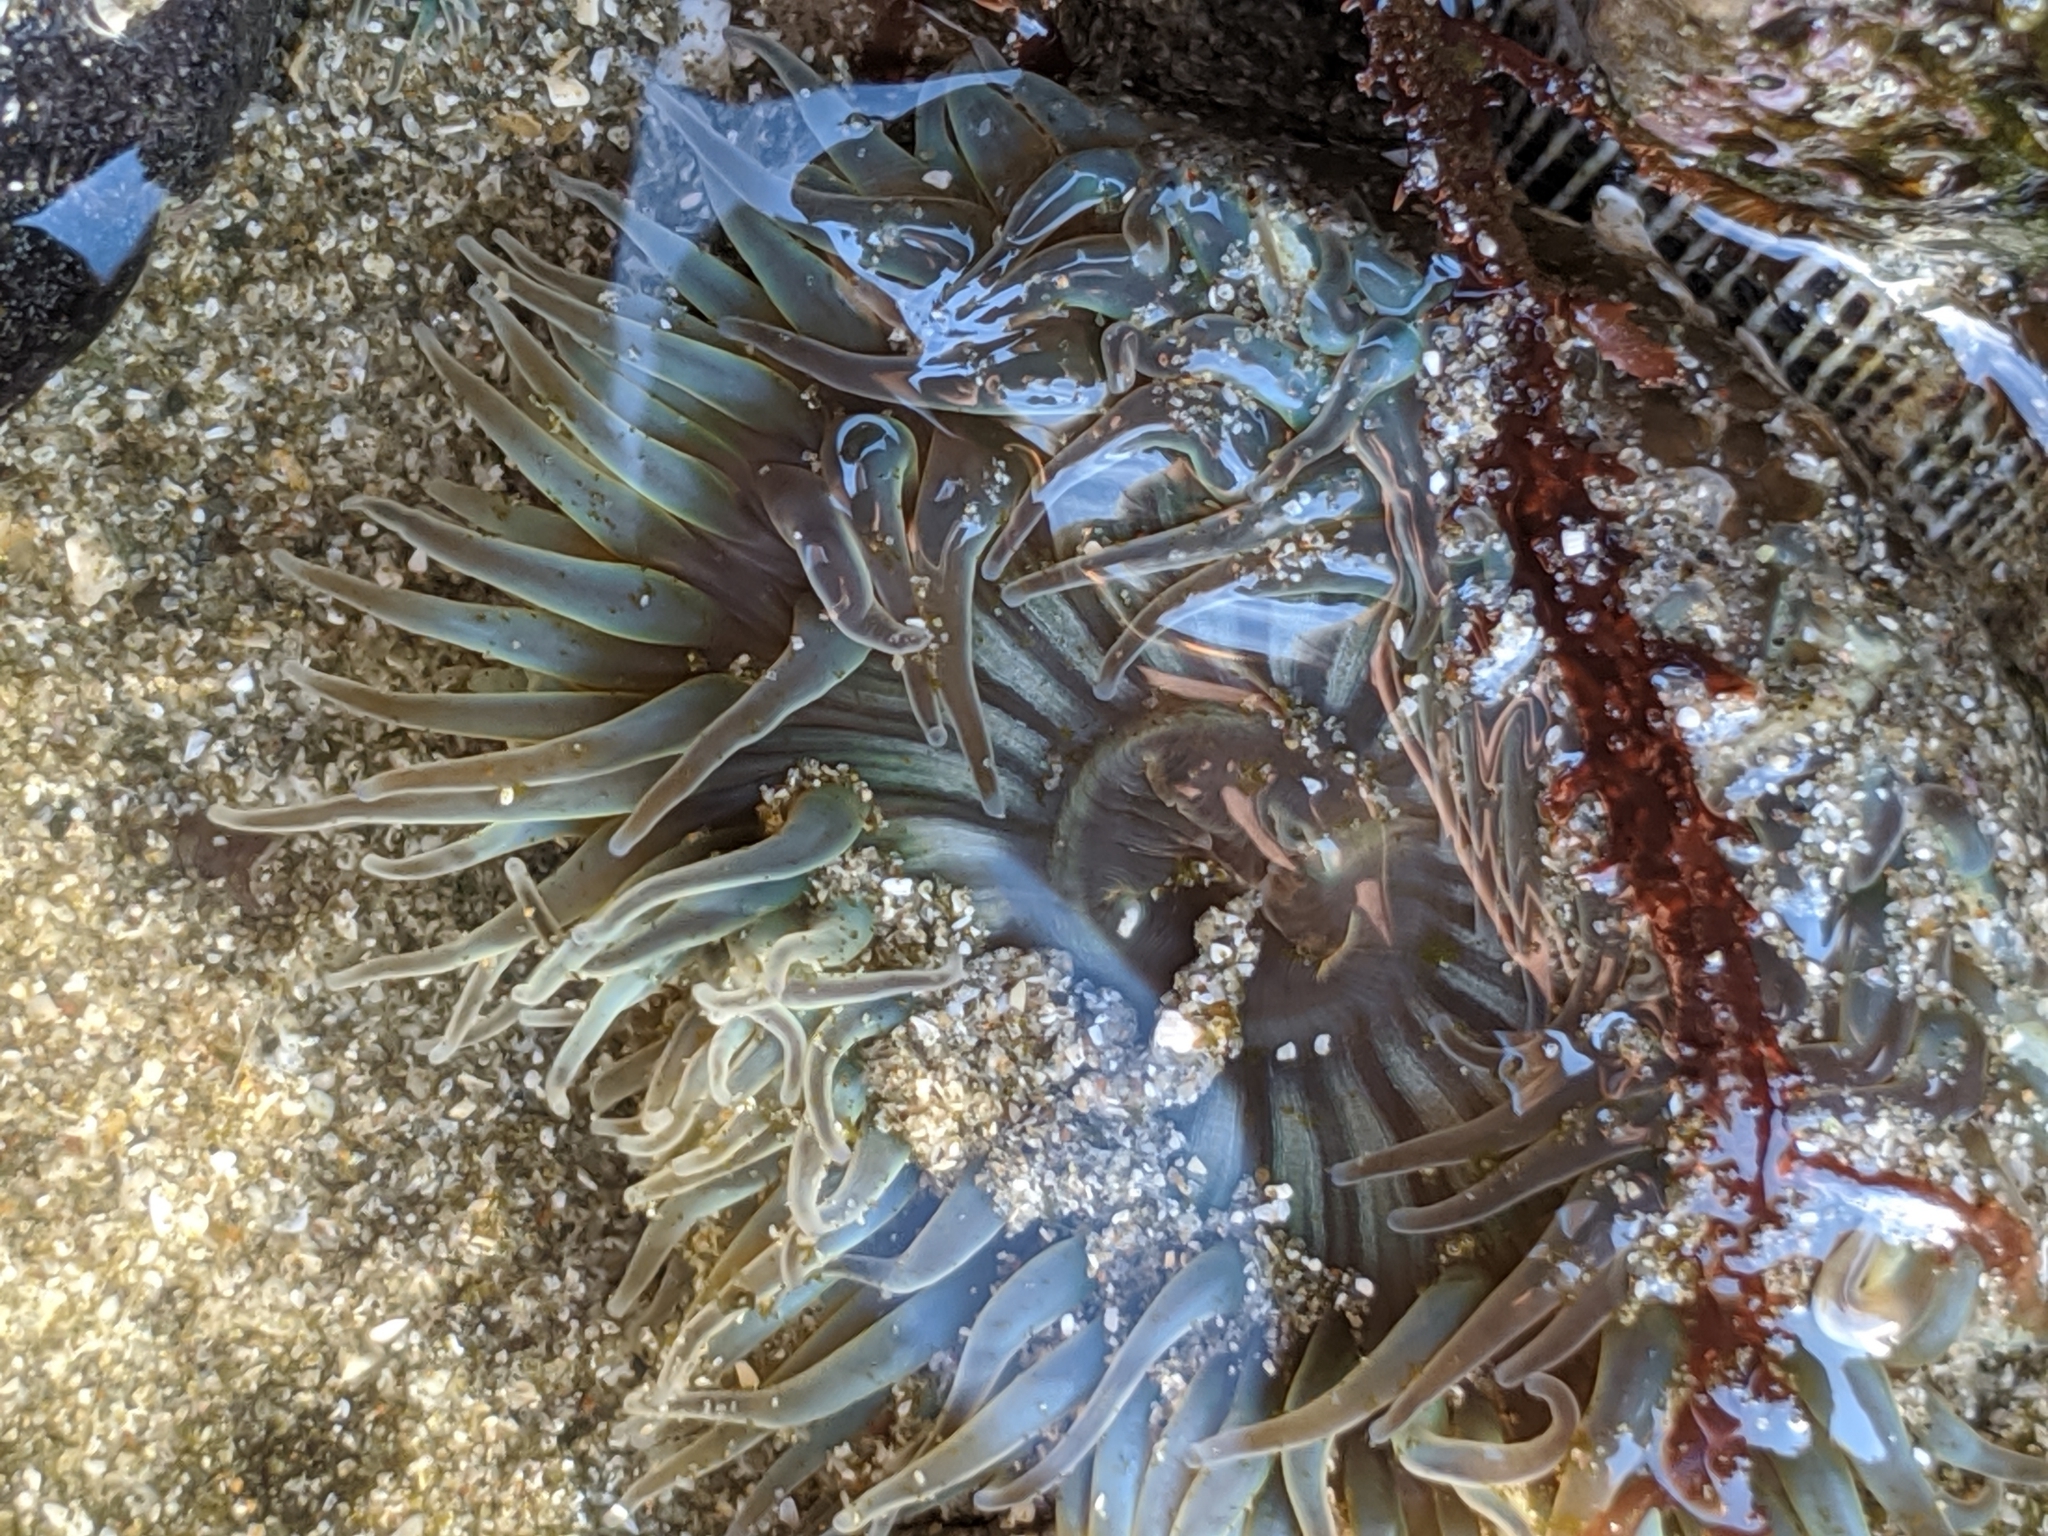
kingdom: Animalia
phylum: Cnidaria
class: Anthozoa
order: Actiniaria
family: Actiniidae
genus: Anthopleura
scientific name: Anthopleura sola
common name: Sun anemone
